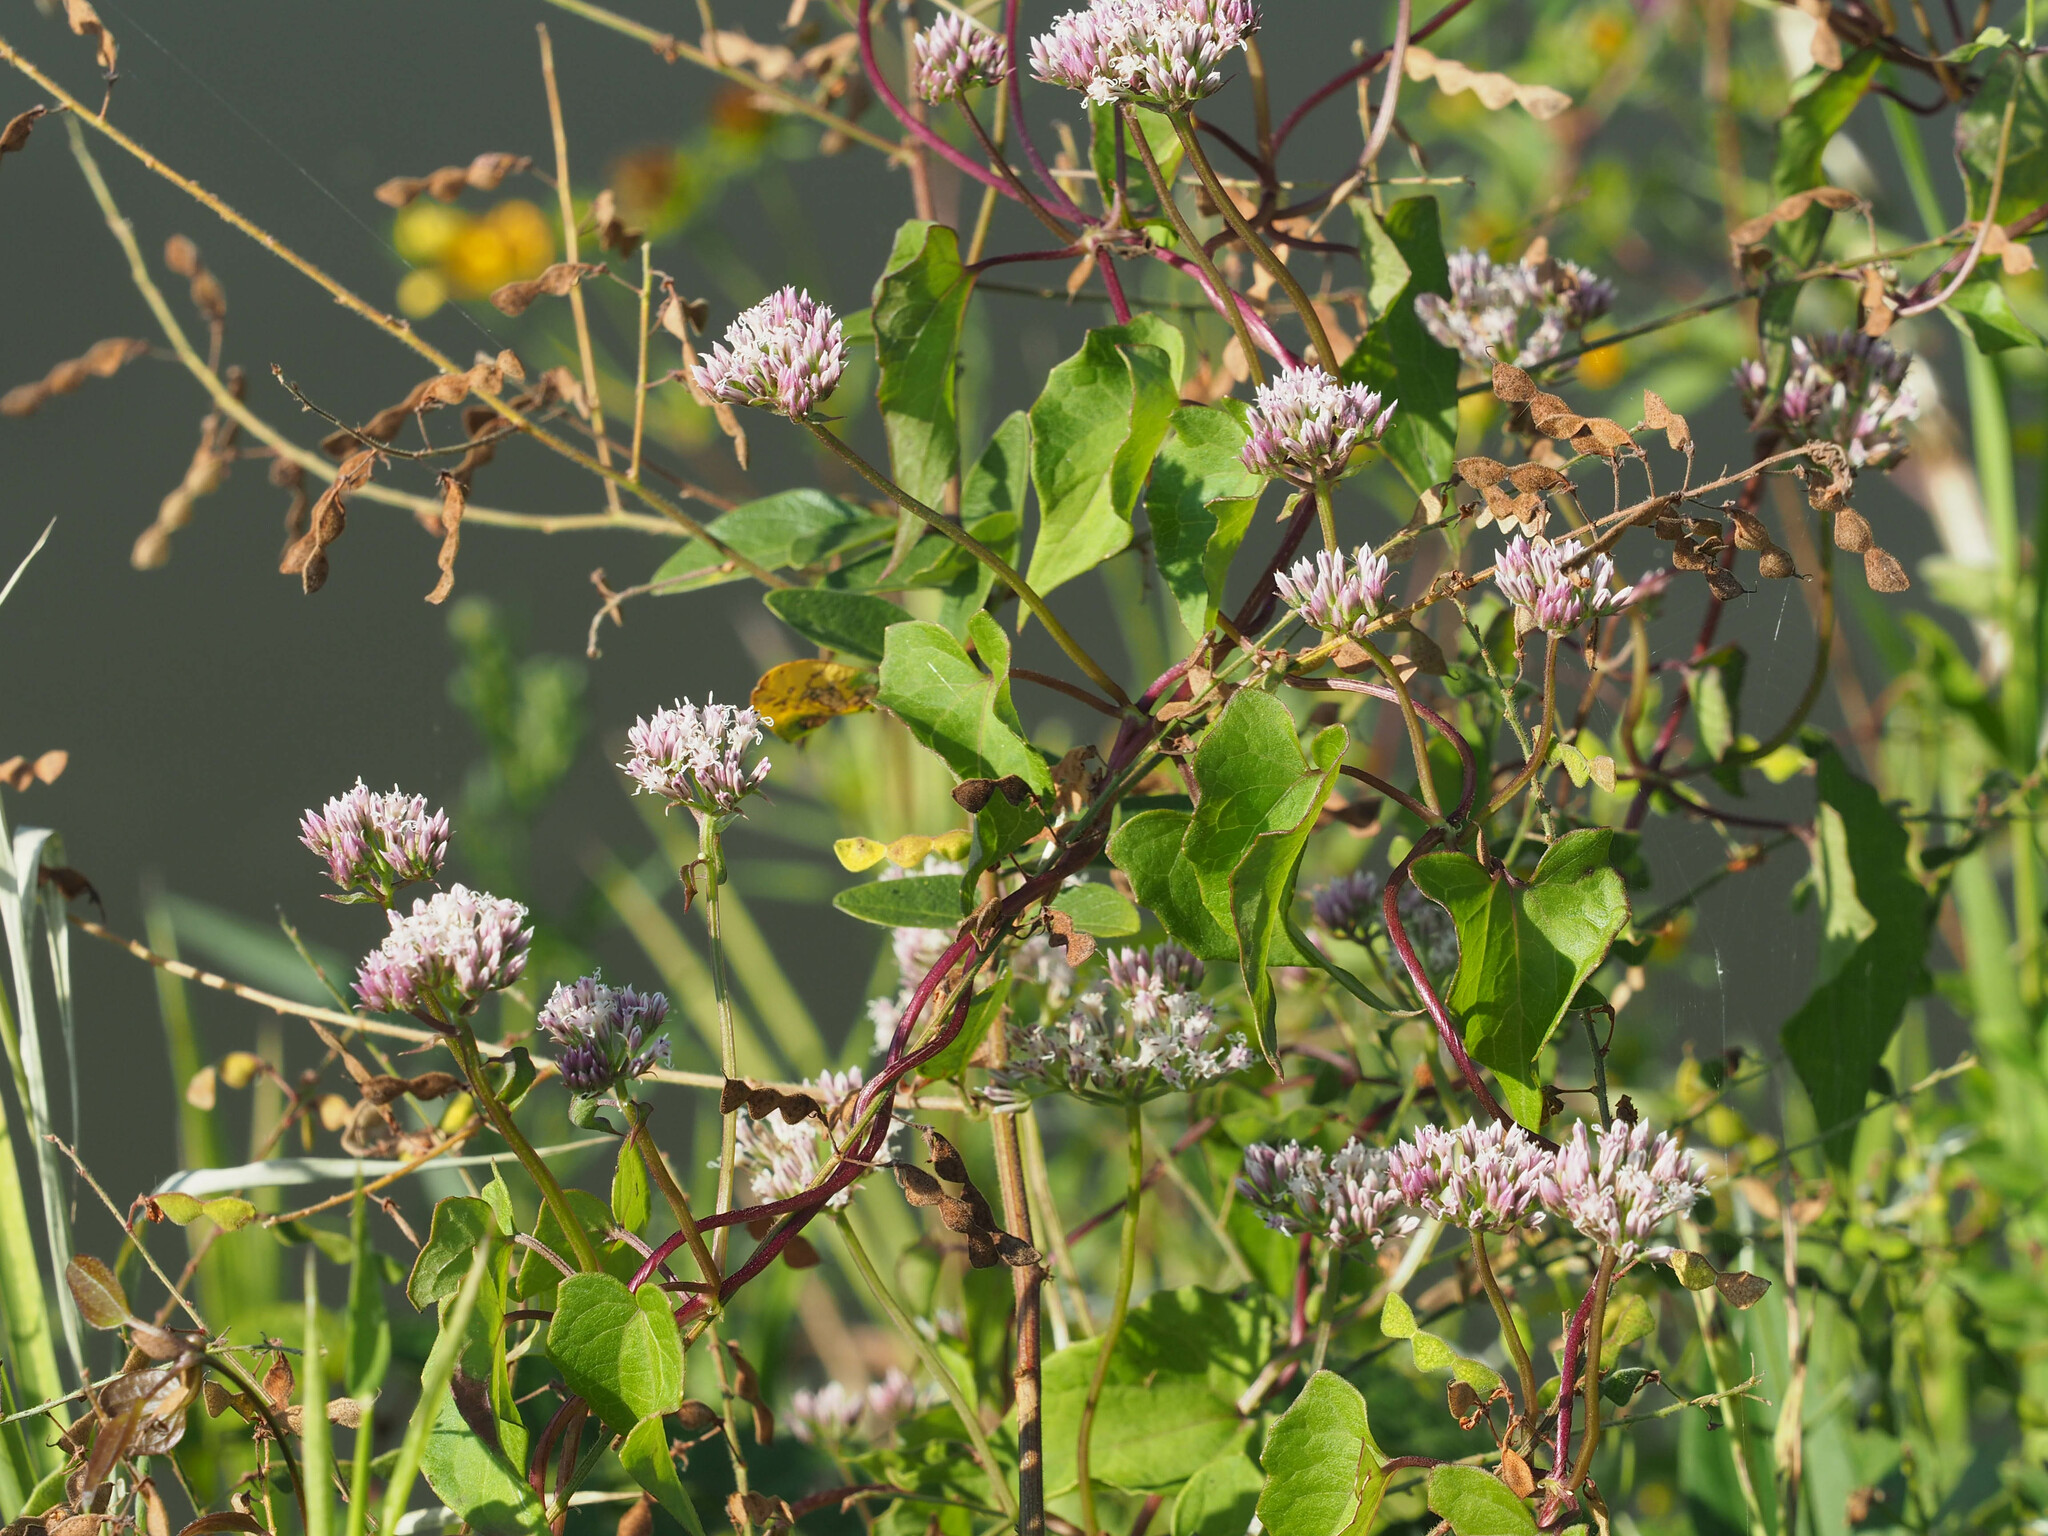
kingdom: Plantae
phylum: Tracheophyta
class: Magnoliopsida
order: Asterales
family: Asteraceae
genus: Mikania
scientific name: Mikania scandens
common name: Climbing hempvine
